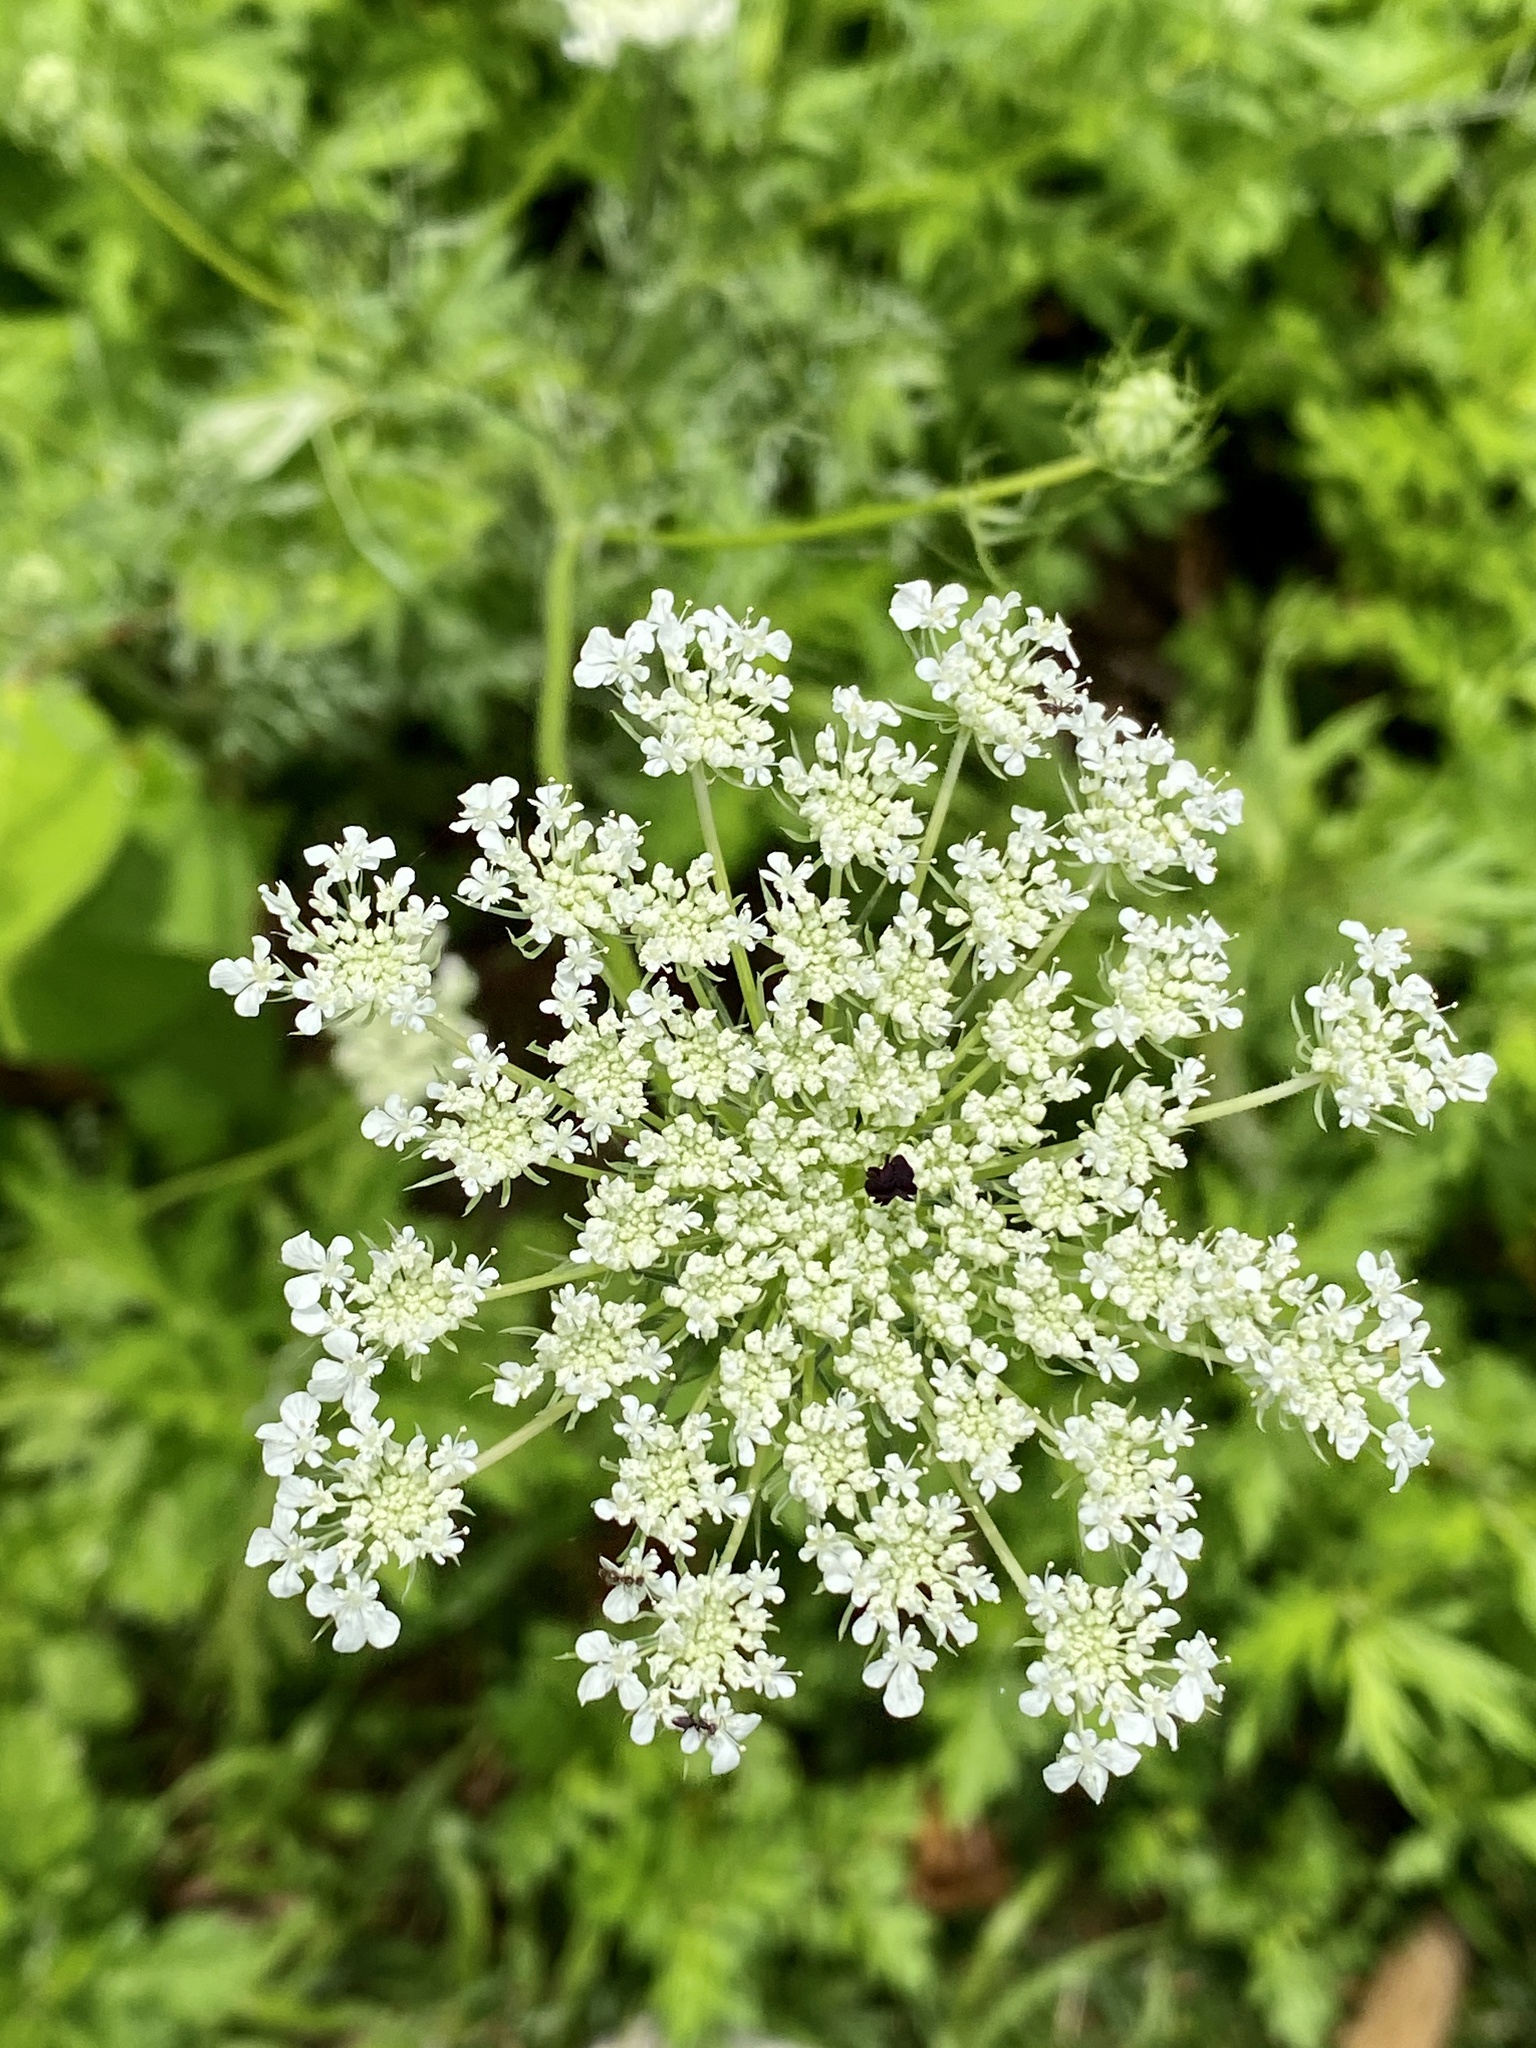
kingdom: Plantae
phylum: Tracheophyta
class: Magnoliopsida
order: Apiales
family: Apiaceae
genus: Daucus
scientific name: Daucus carota
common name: Wild carrot
